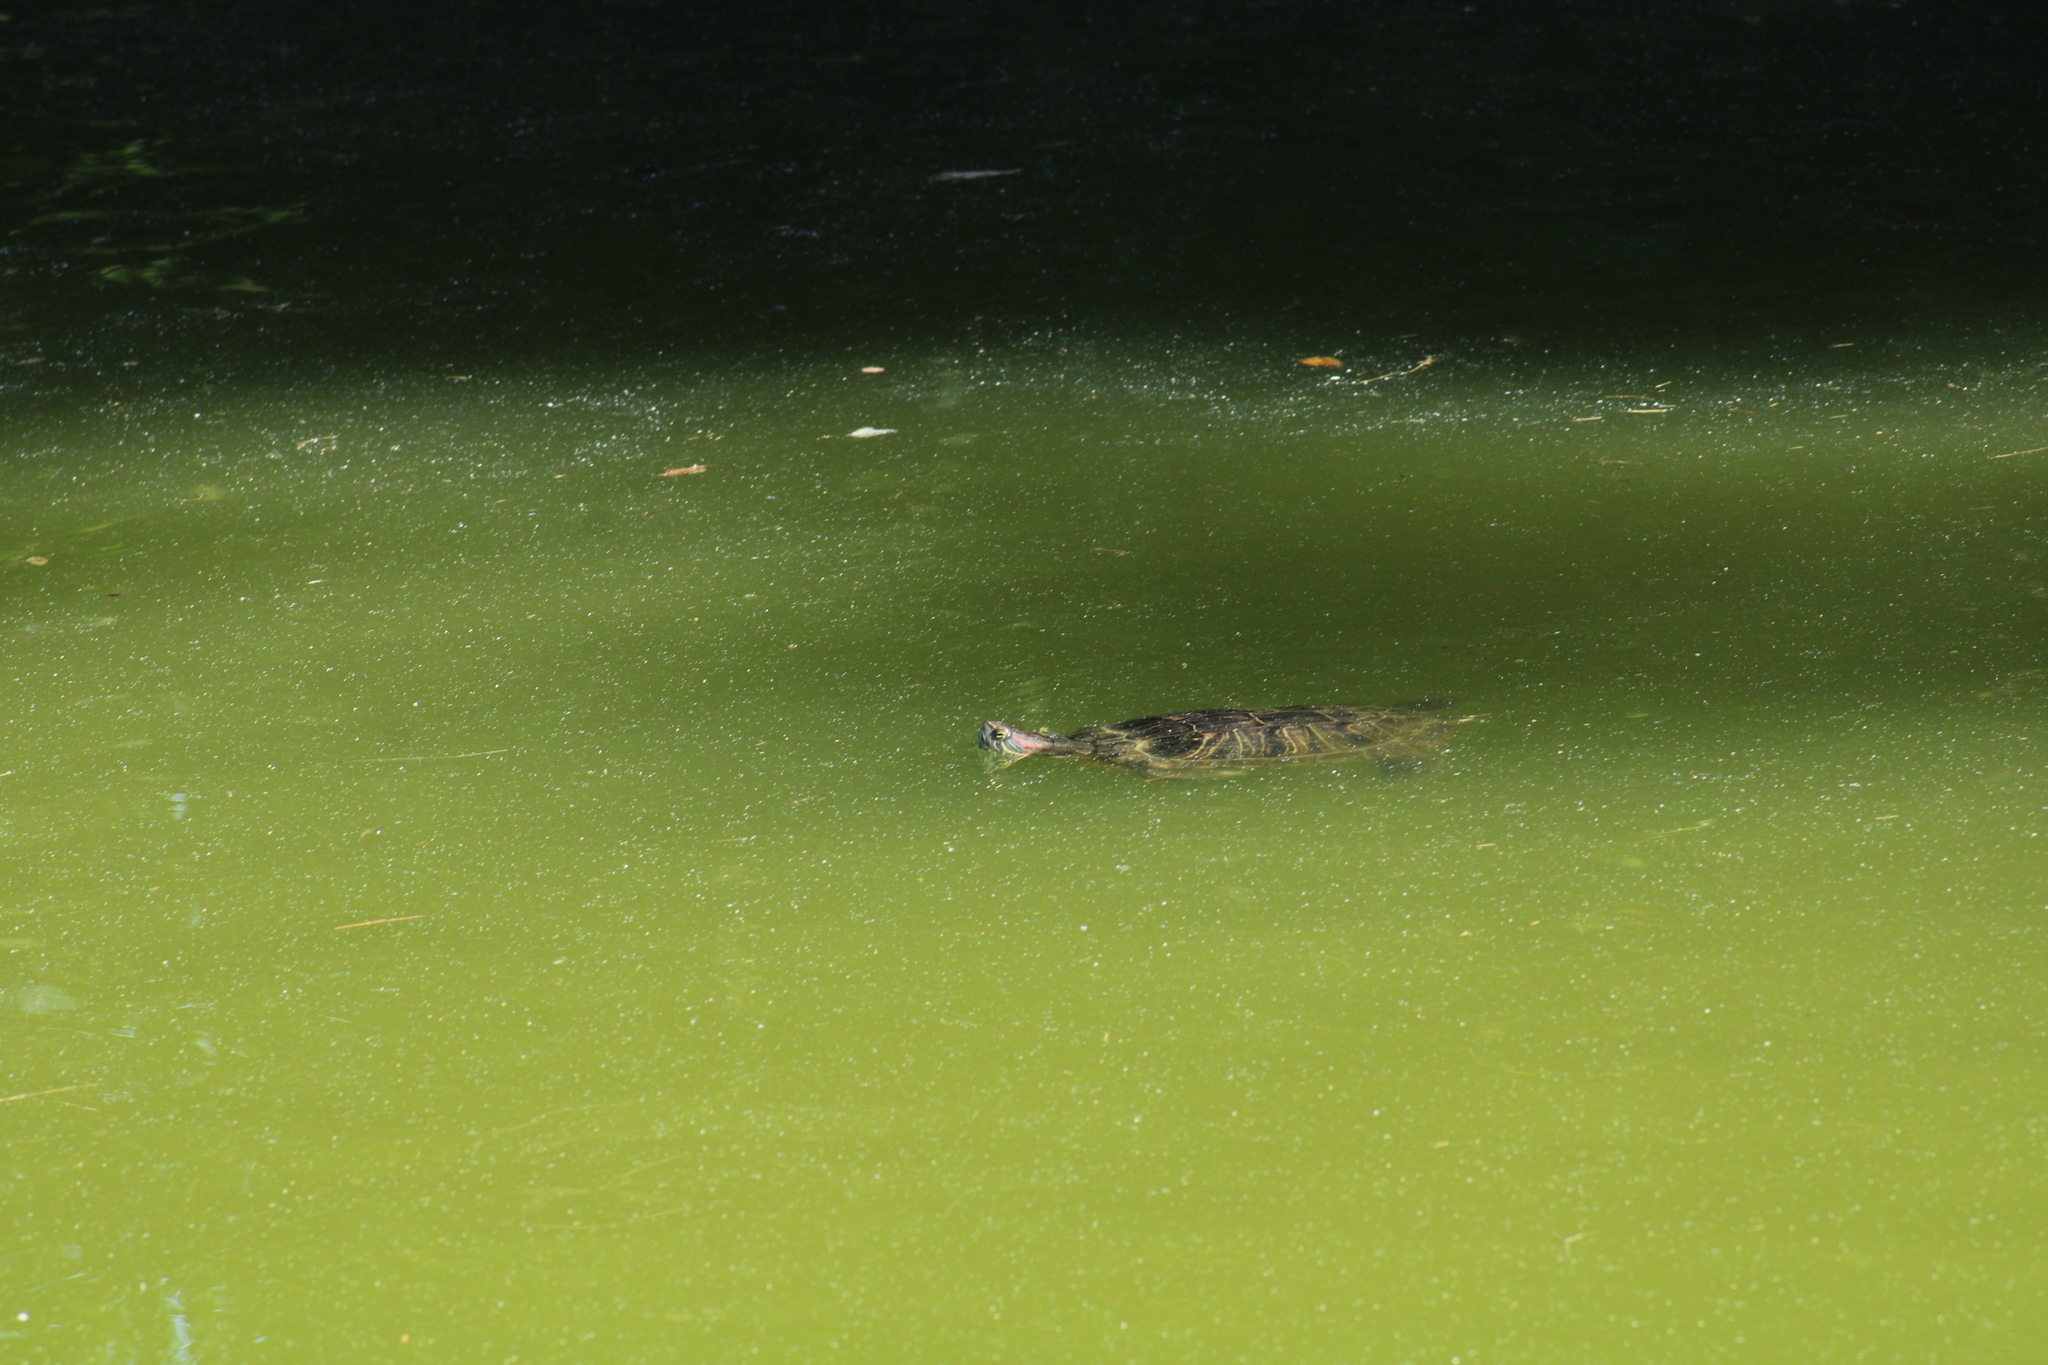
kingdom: Animalia
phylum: Chordata
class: Testudines
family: Emydidae
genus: Trachemys
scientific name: Trachemys scripta
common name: Slider
